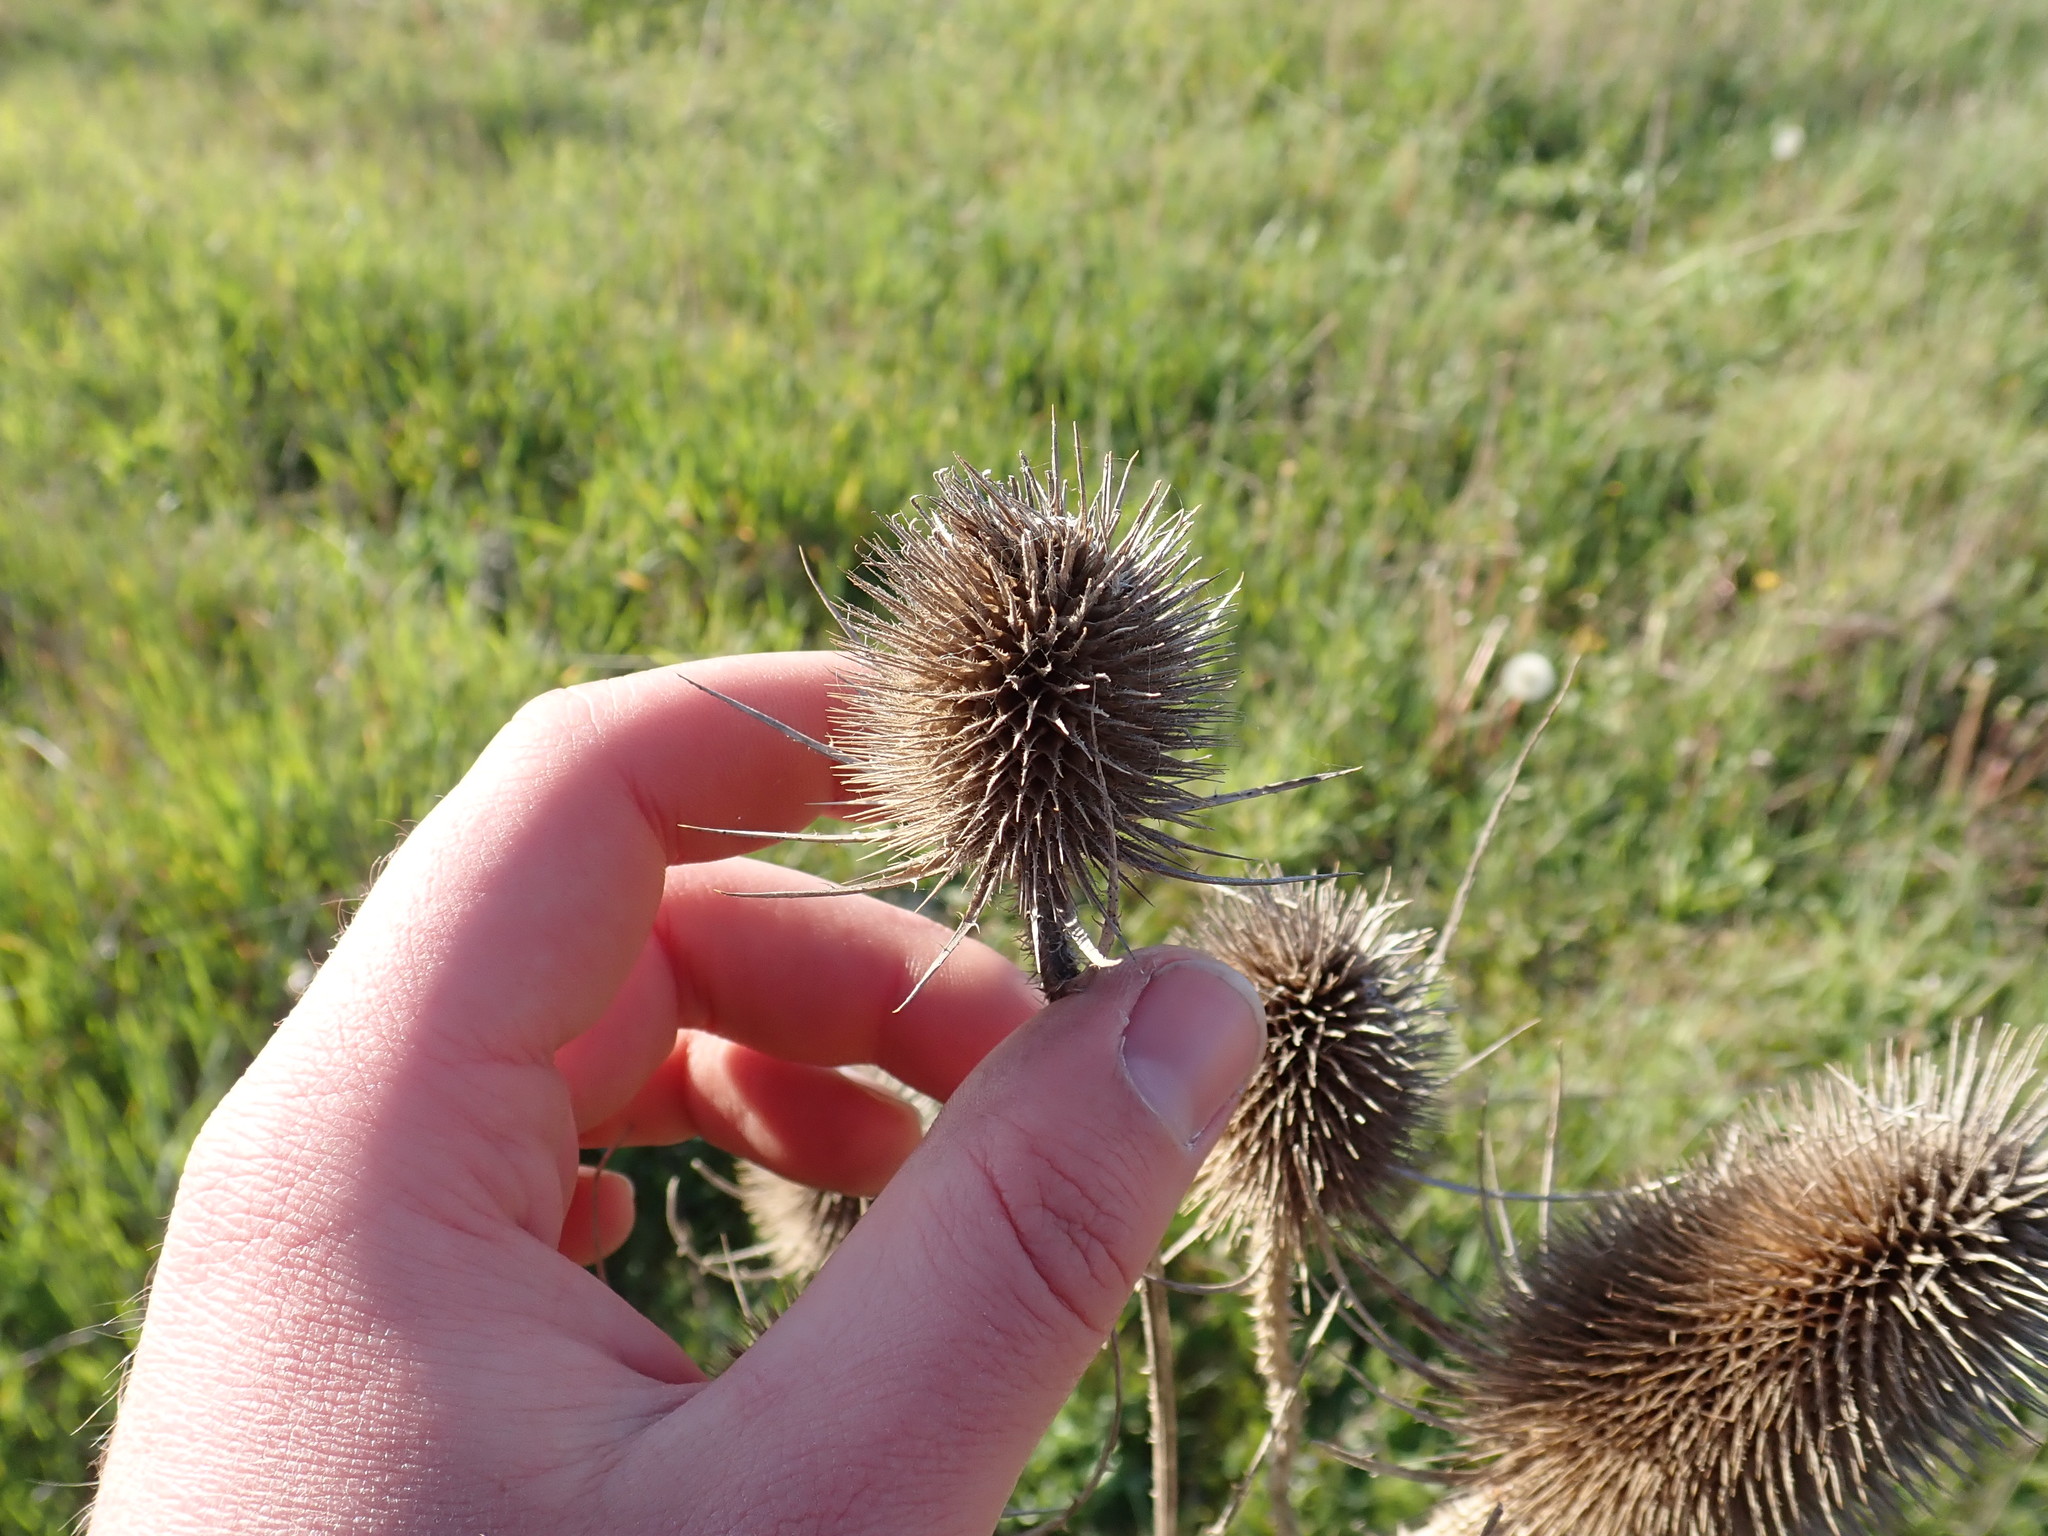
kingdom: Plantae
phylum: Tracheophyta
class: Magnoliopsida
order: Dipsacales
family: Caprifoliaceae
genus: Dipsacus
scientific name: Dipsacus fullonum
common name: Teasel
